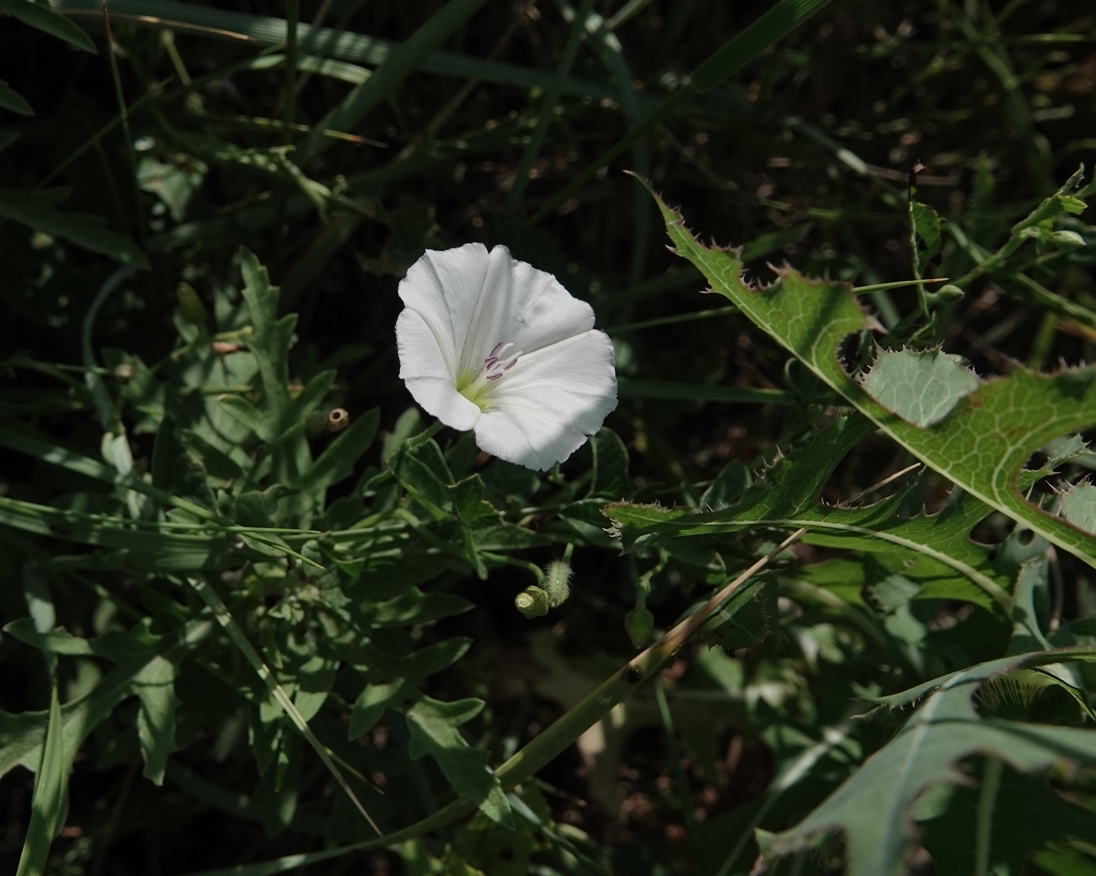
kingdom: Plantae
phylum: Tracheophyta
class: Magnoliopsida
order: Solanales
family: Convolvulaceae
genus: Convolvulus
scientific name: Convolvulus arvensis
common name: Field bindweed
